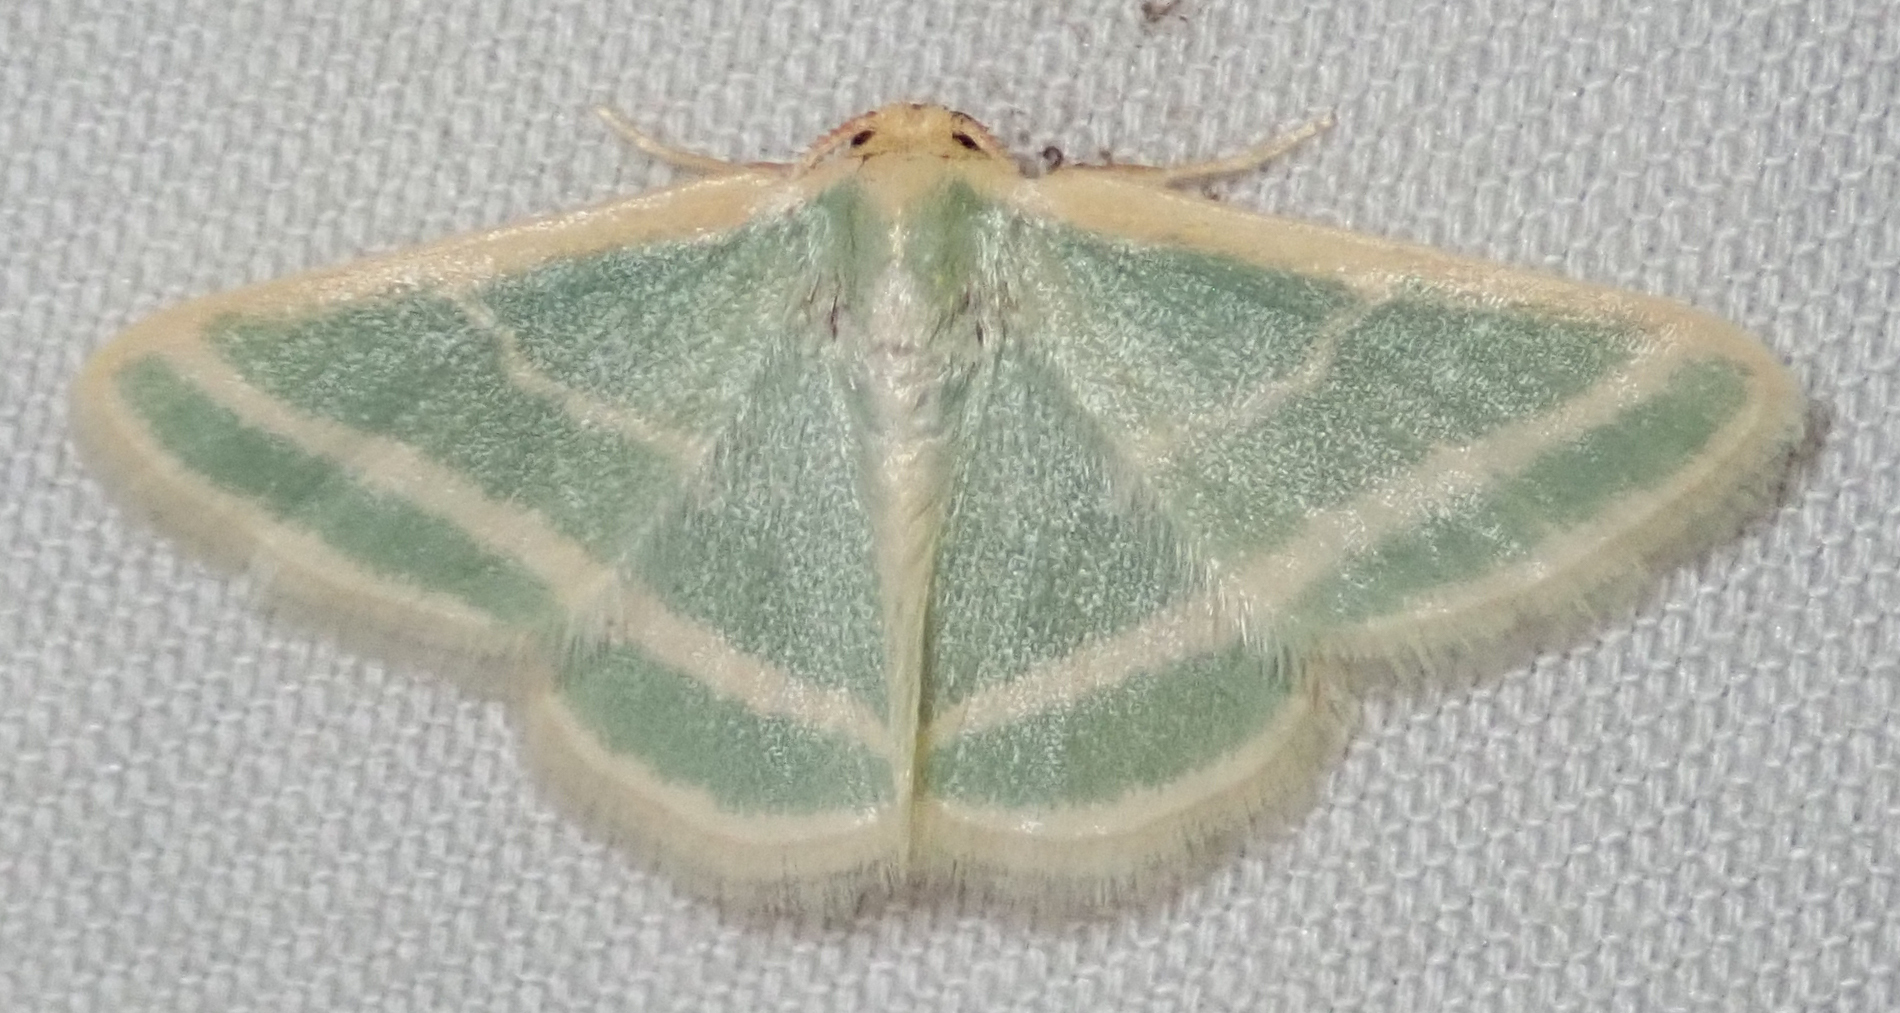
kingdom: Animalia
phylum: Arthropoda
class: Insecta
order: Lepidoptera
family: Geometridae
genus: Mixocera
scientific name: Mixocera frustratoria
